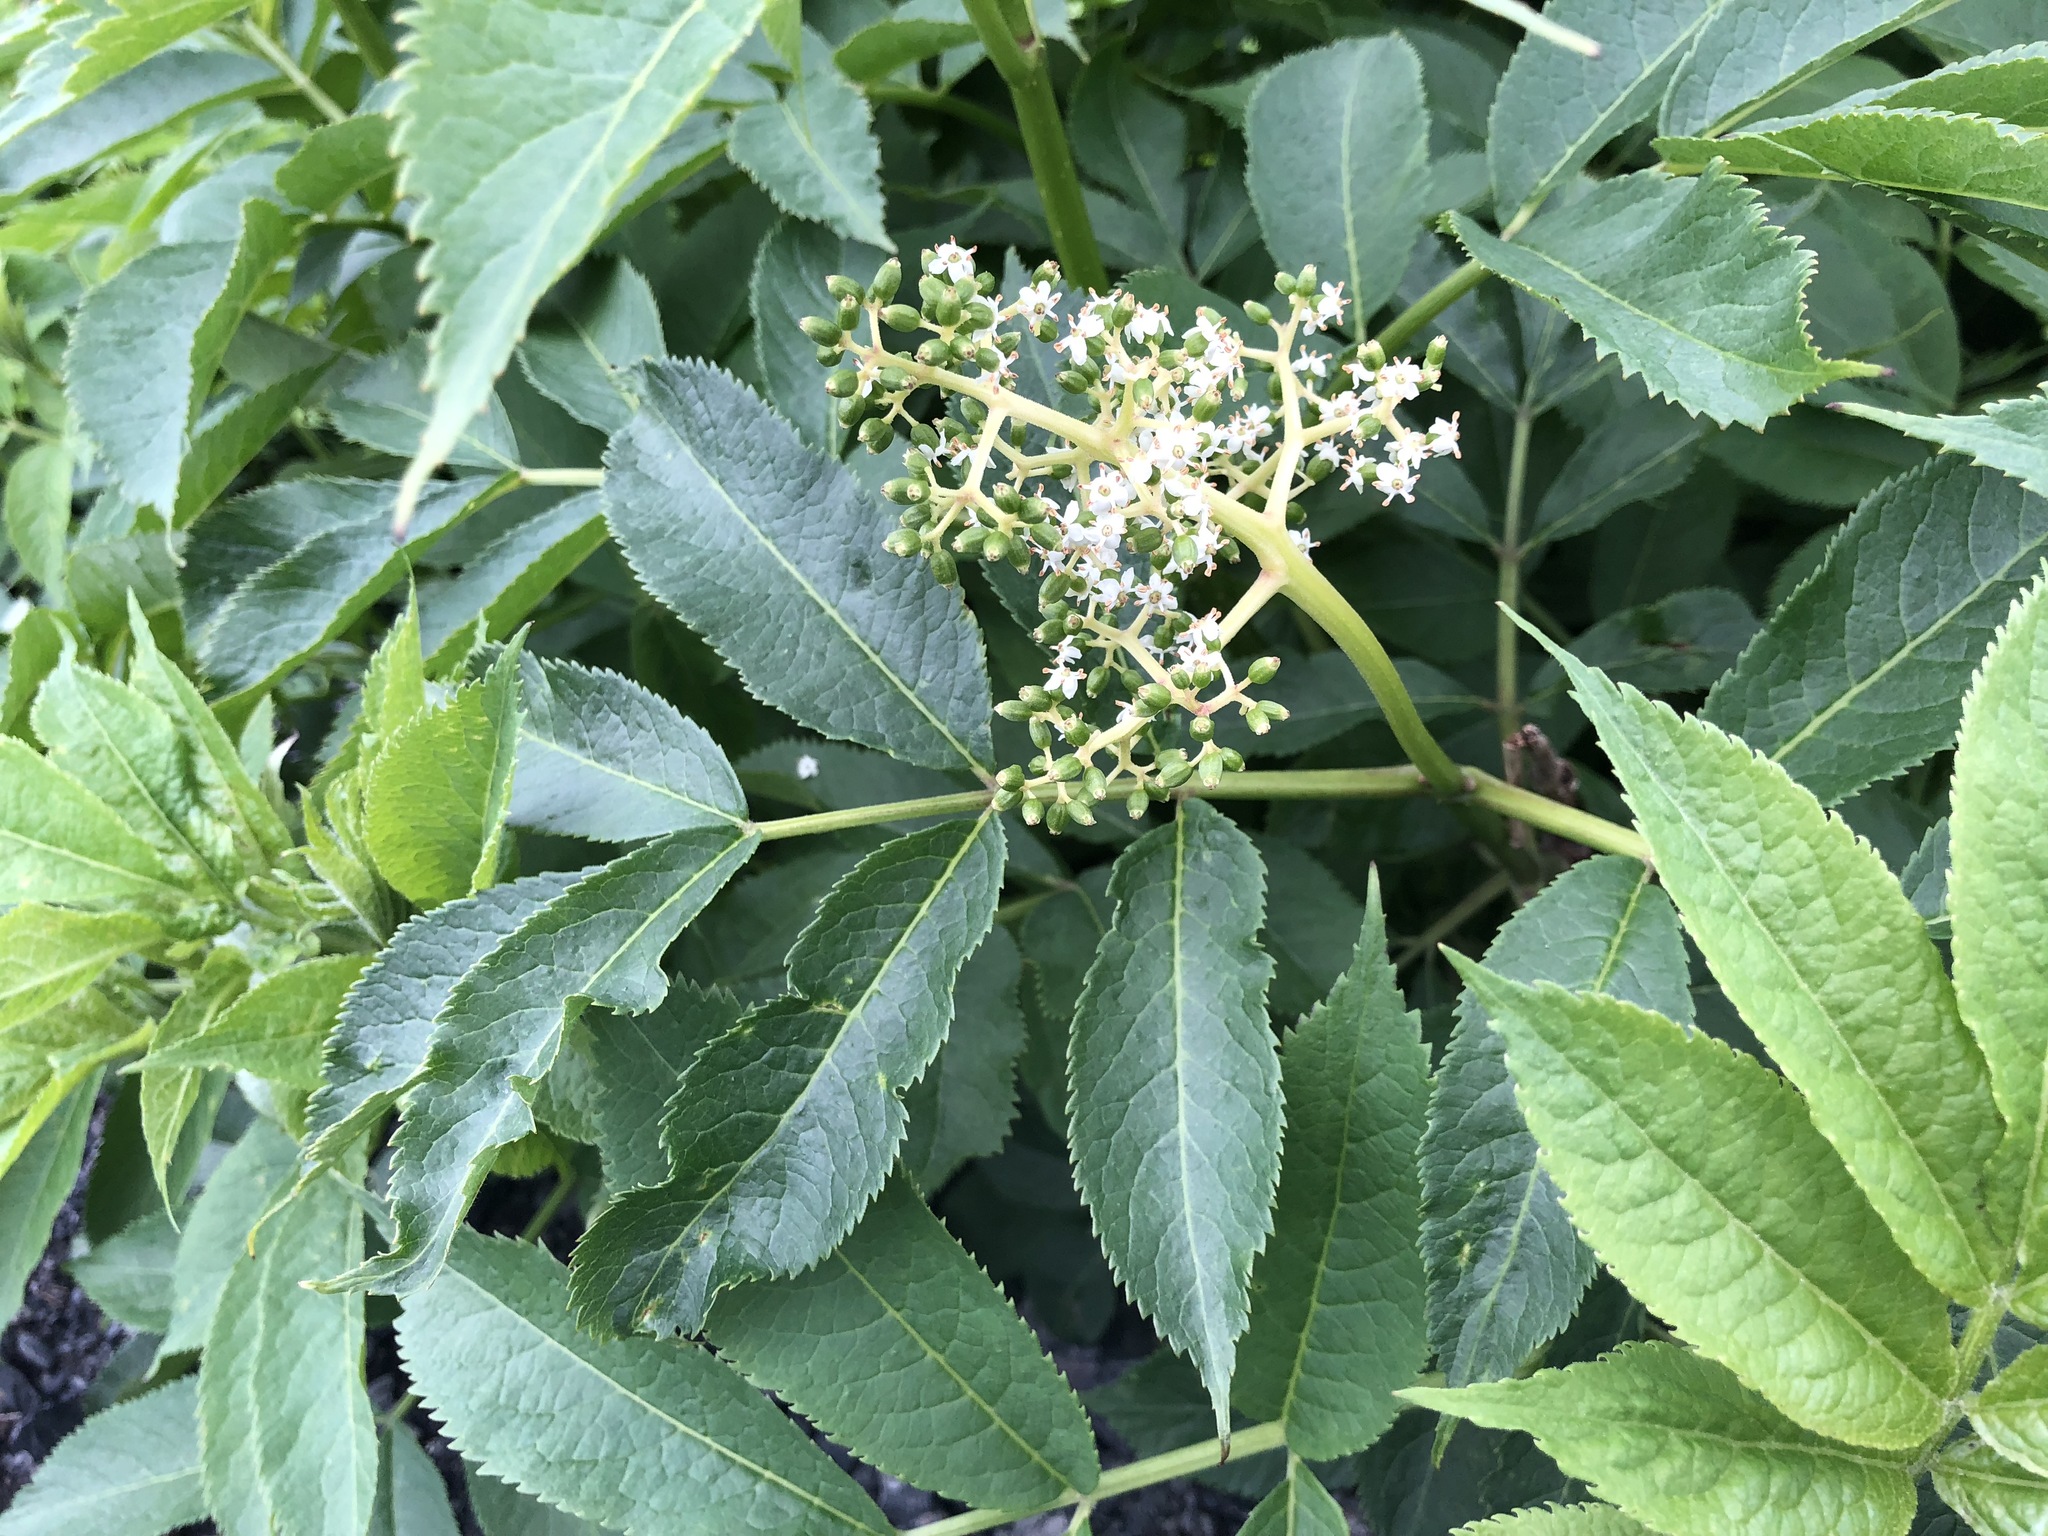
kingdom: Plantae
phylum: Tracheophyta
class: Magnoliopsida
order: Dipsacales
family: Viburnaceae
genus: Sambucus
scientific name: Sambucus racemosa
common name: Red-berried elder
